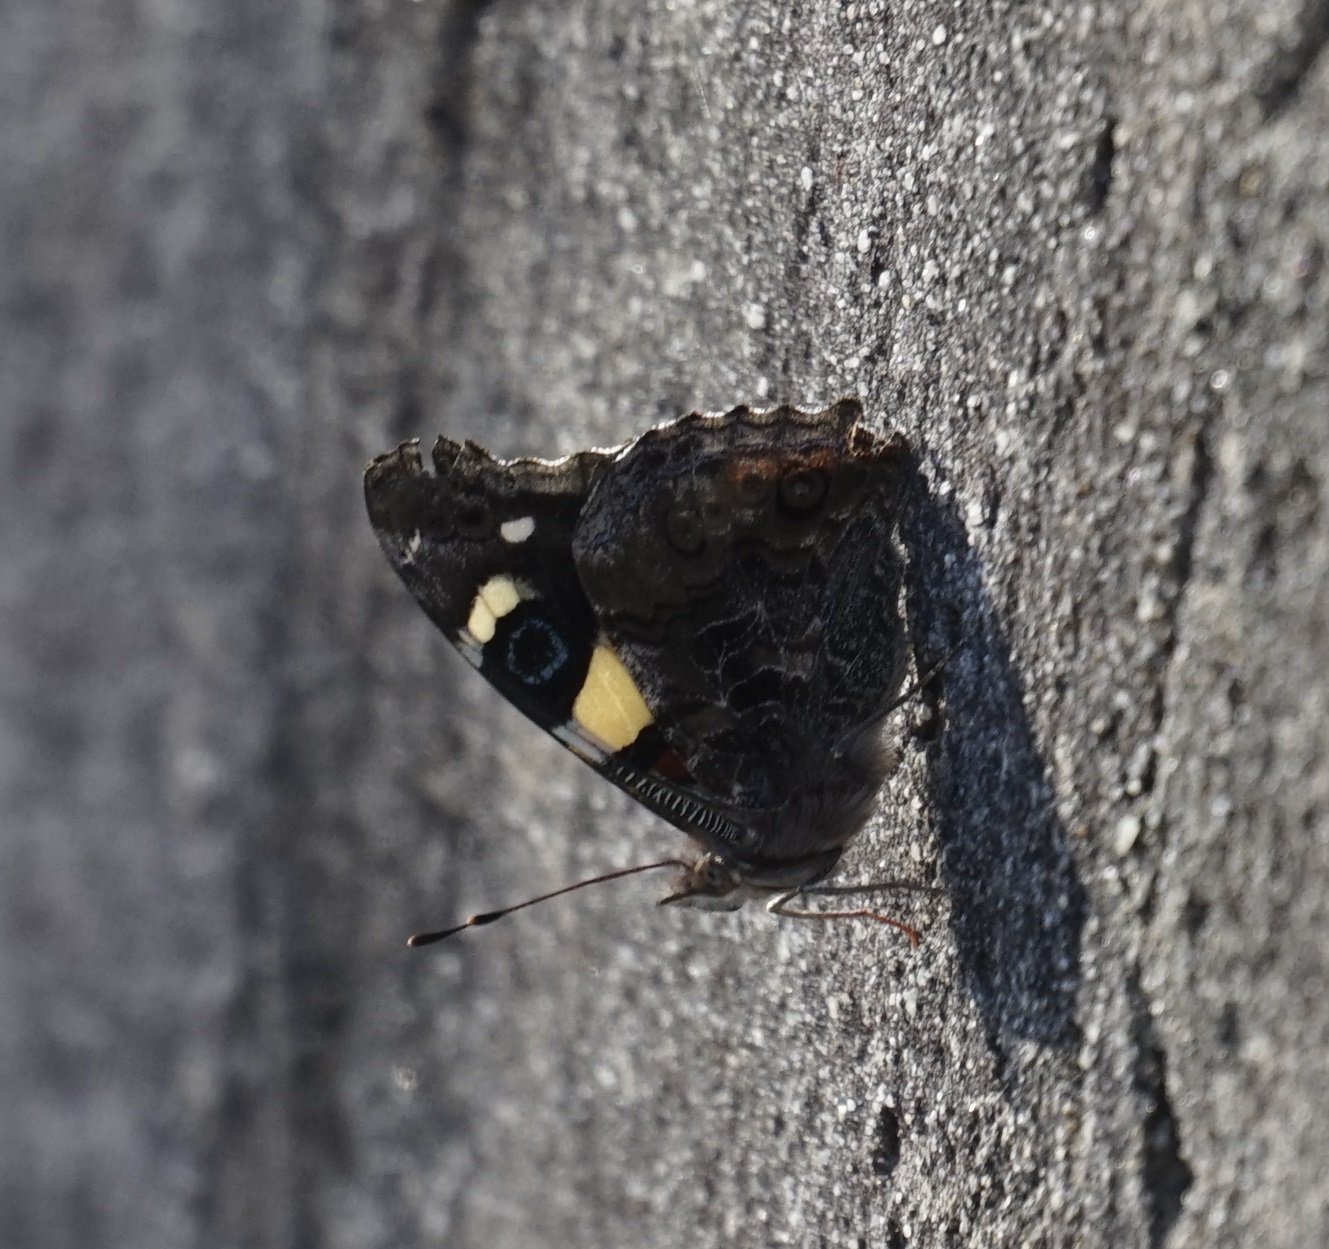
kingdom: Animalia
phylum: Arthropoda
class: Insecta
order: Lepidoptera
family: Nymphalidae
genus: Vanessa
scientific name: Vanessa itea
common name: Yellow admiral
